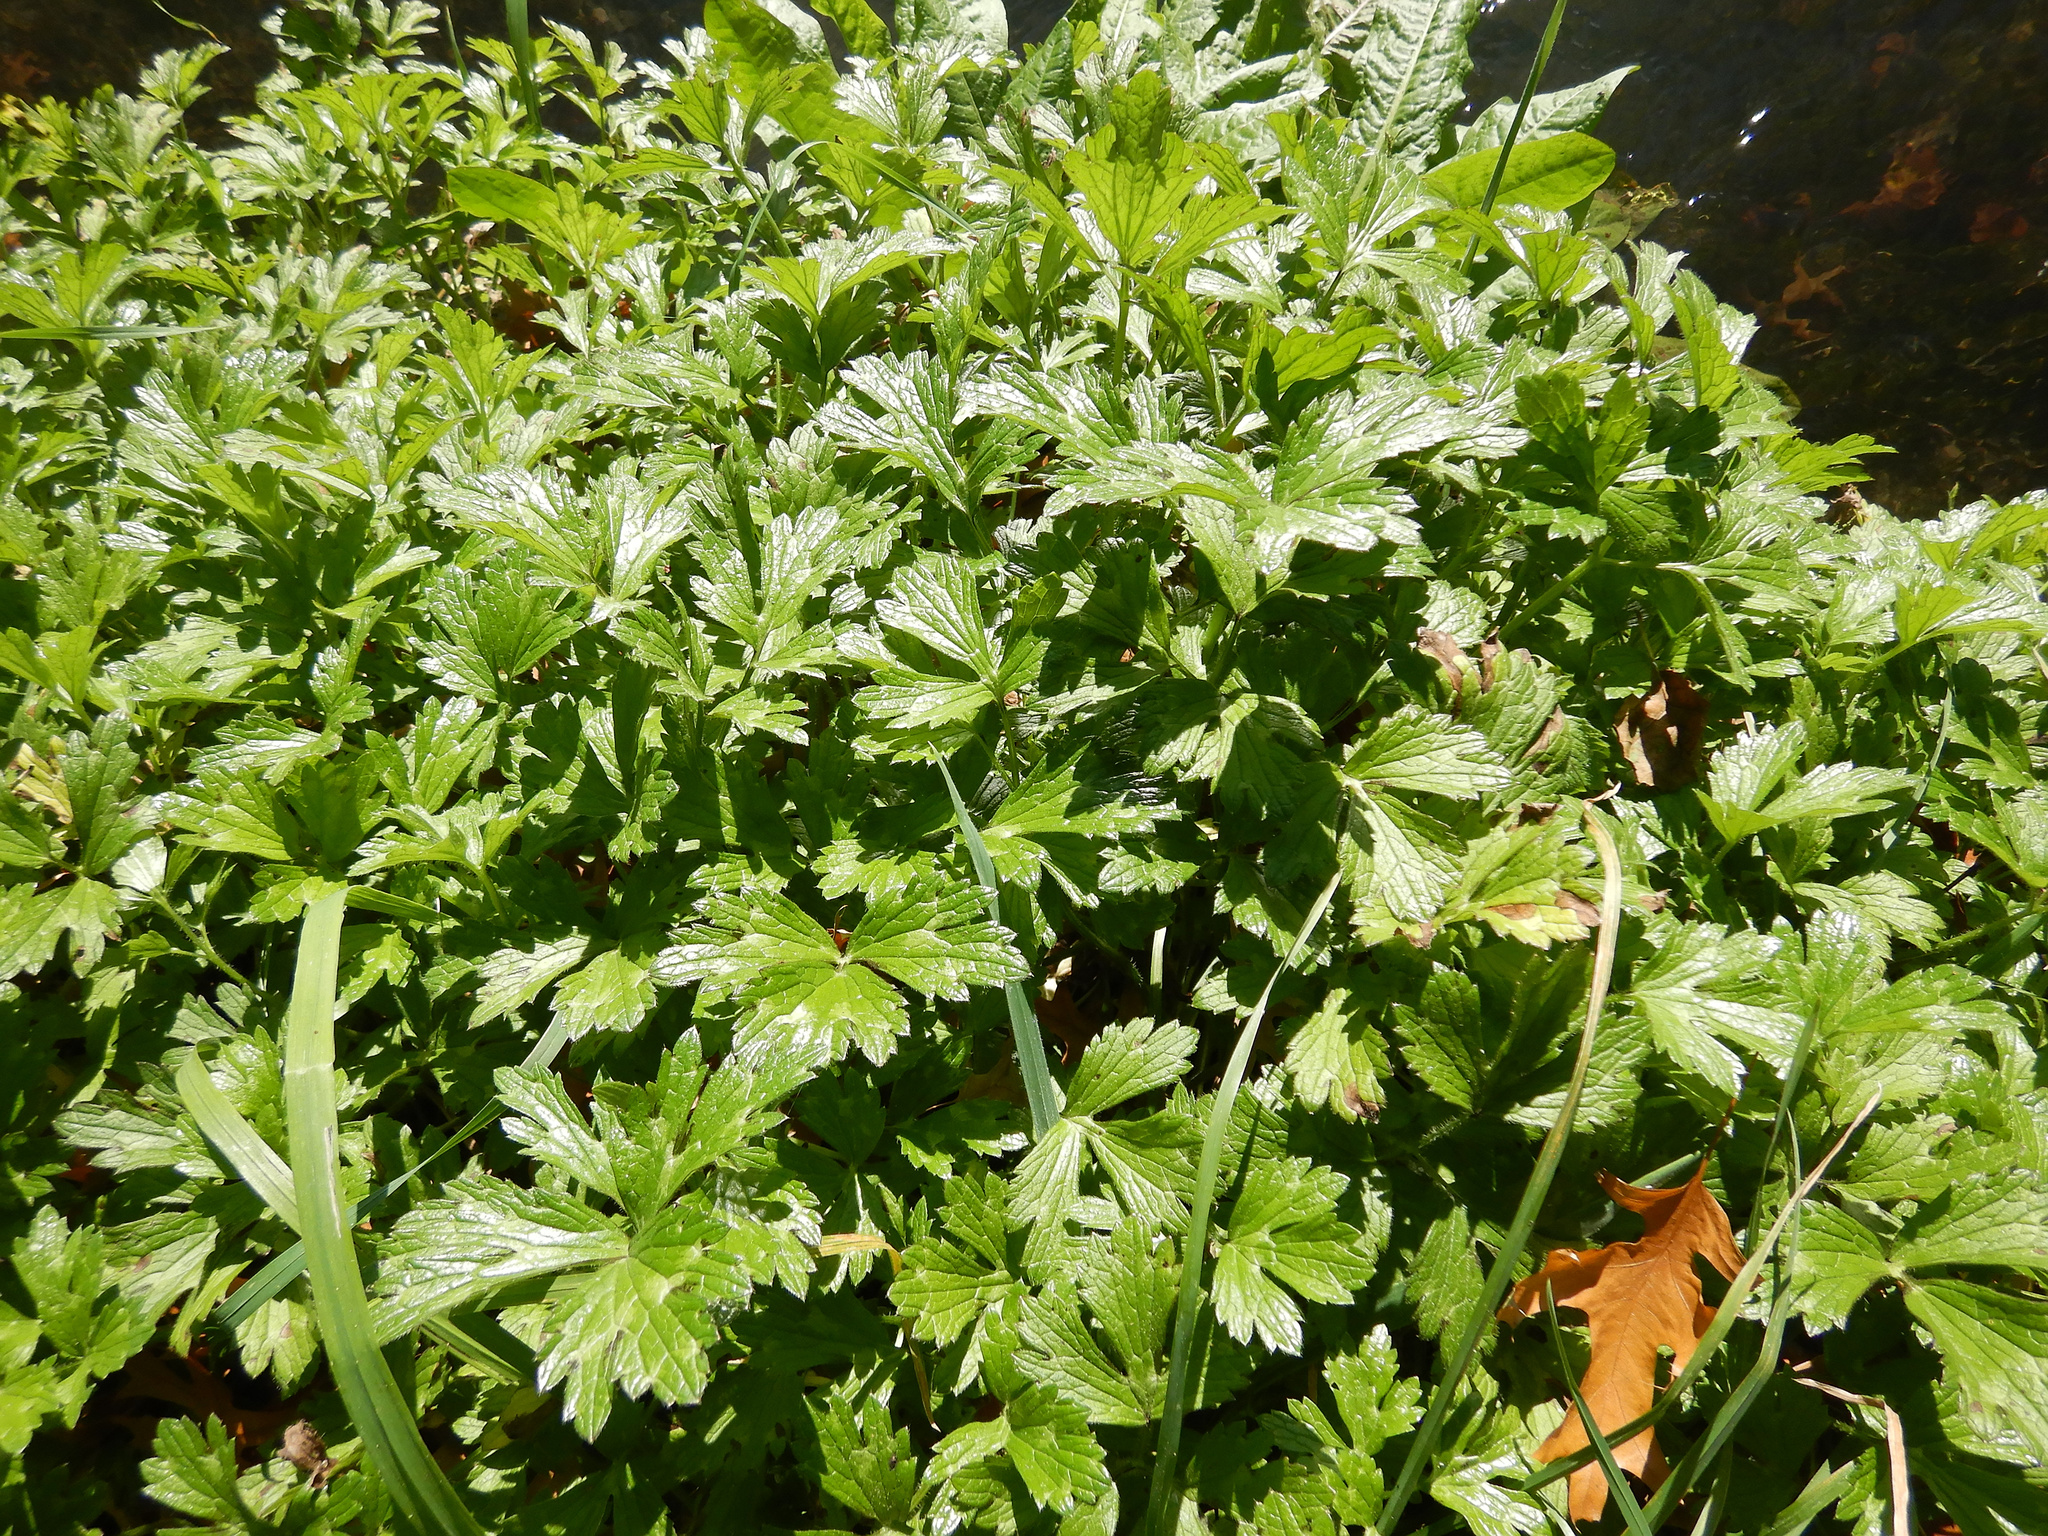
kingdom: Plantae
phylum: Tracheophyta
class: Magnoliopsida
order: Ranunculales
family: Ranunculaceae
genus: Ranunculus
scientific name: Ranunculus repens
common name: Creeping buttercup
